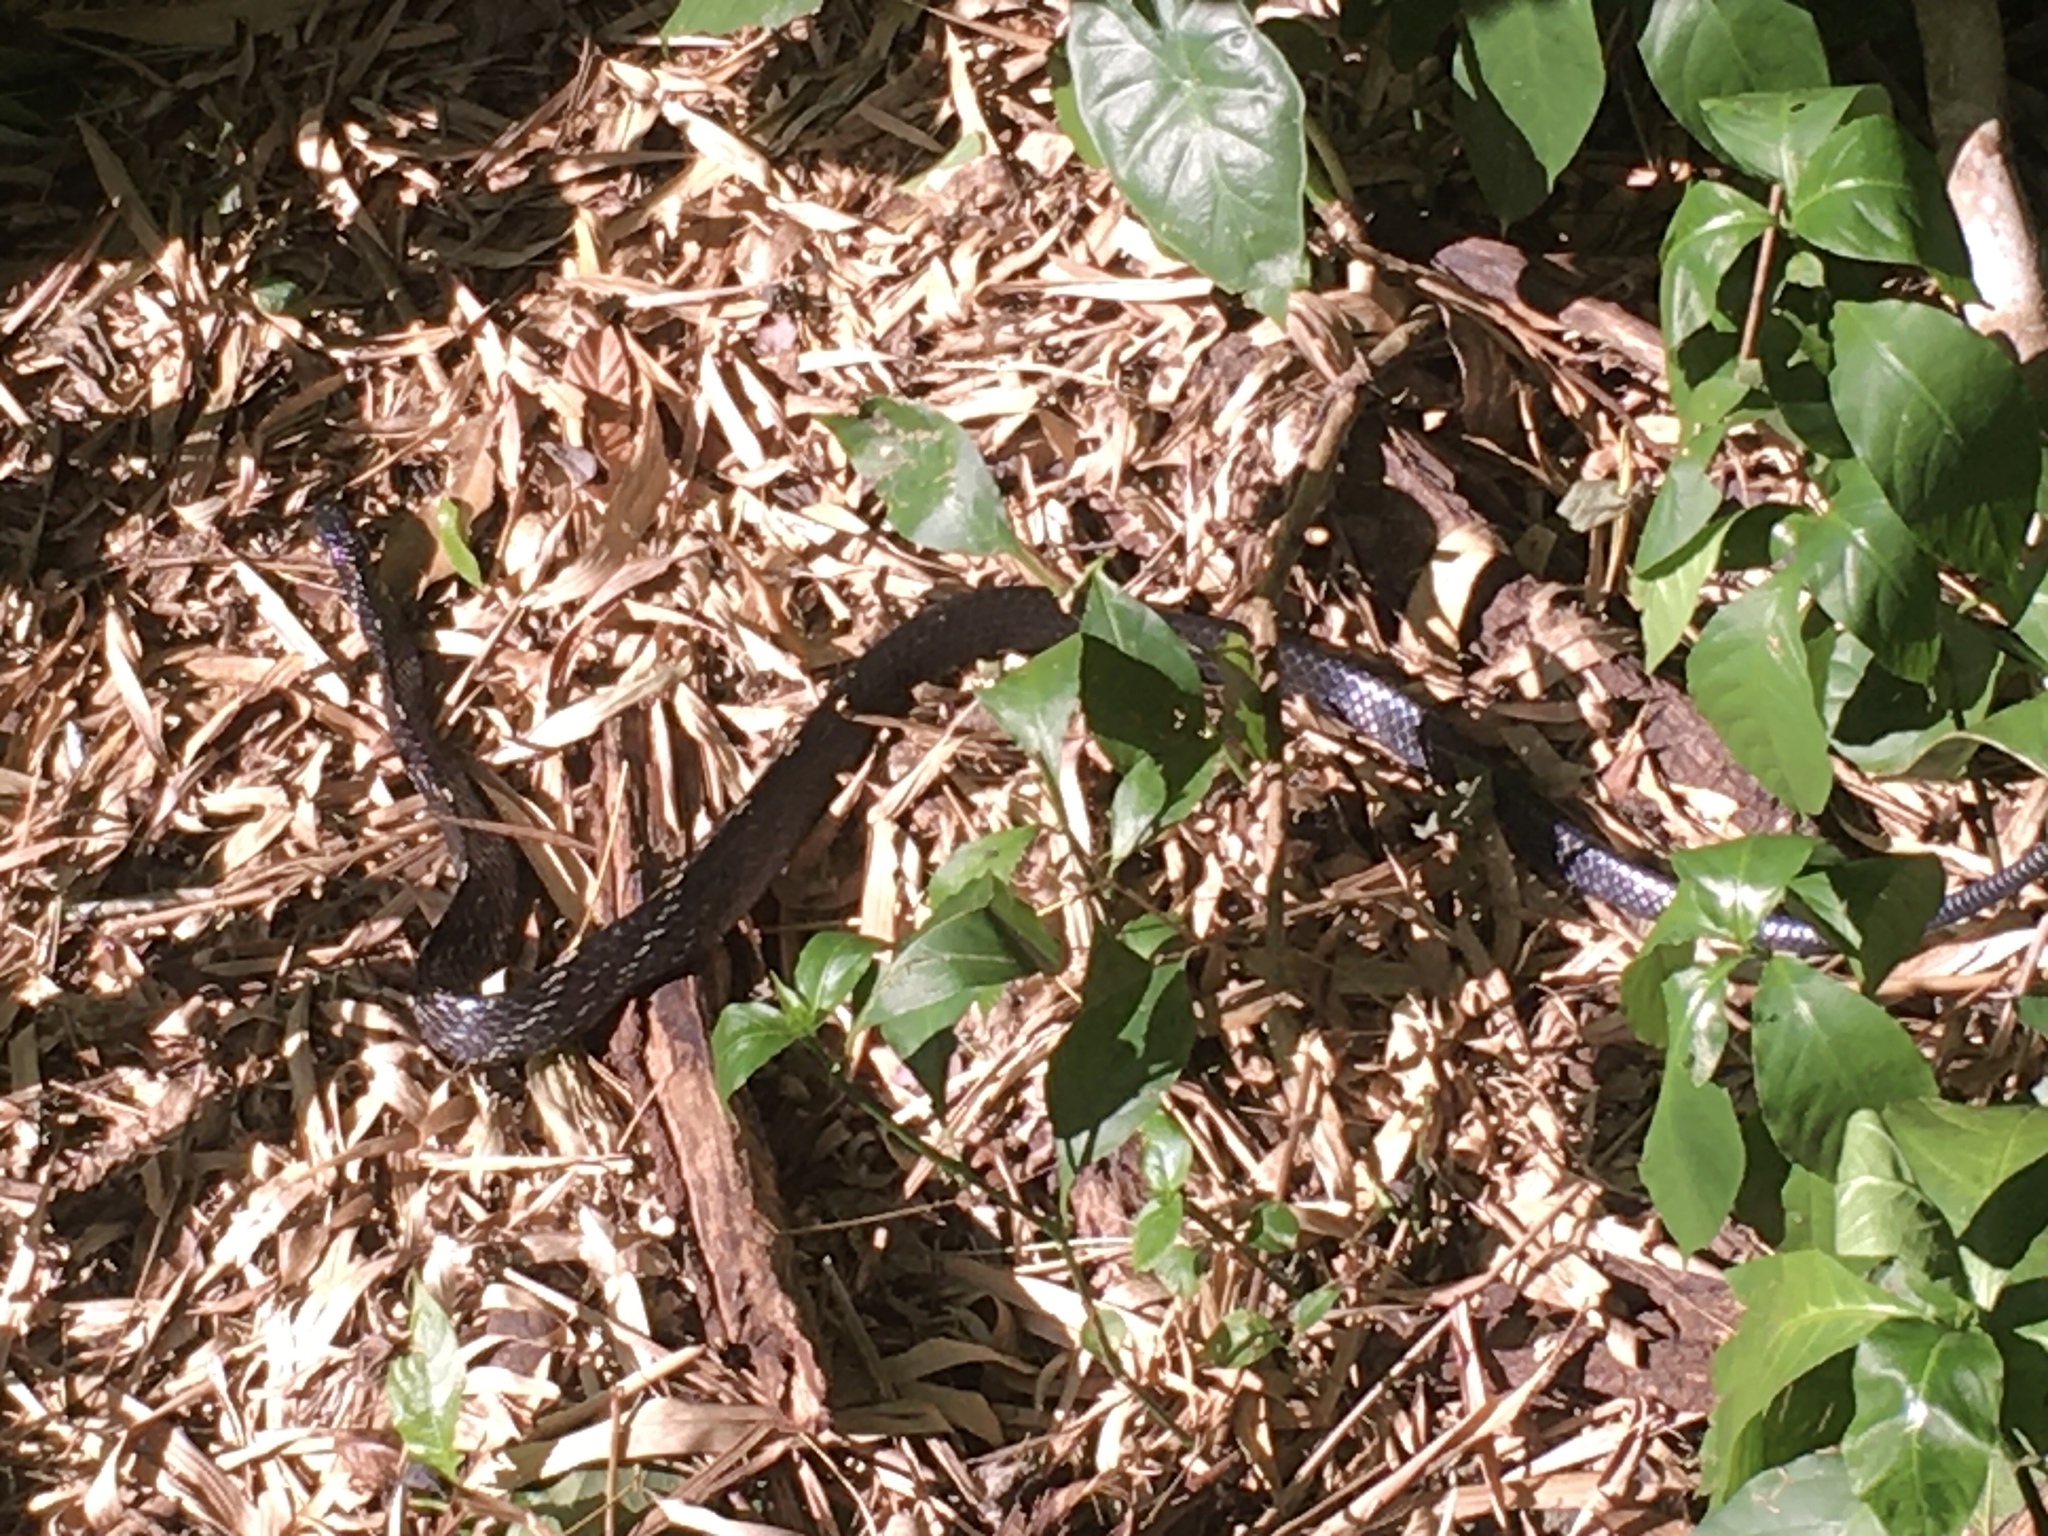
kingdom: Animalia
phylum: Chordata
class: Squamata
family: Colubridae
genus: Spilotes
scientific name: Spilotes pullatus
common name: Chicken snake
